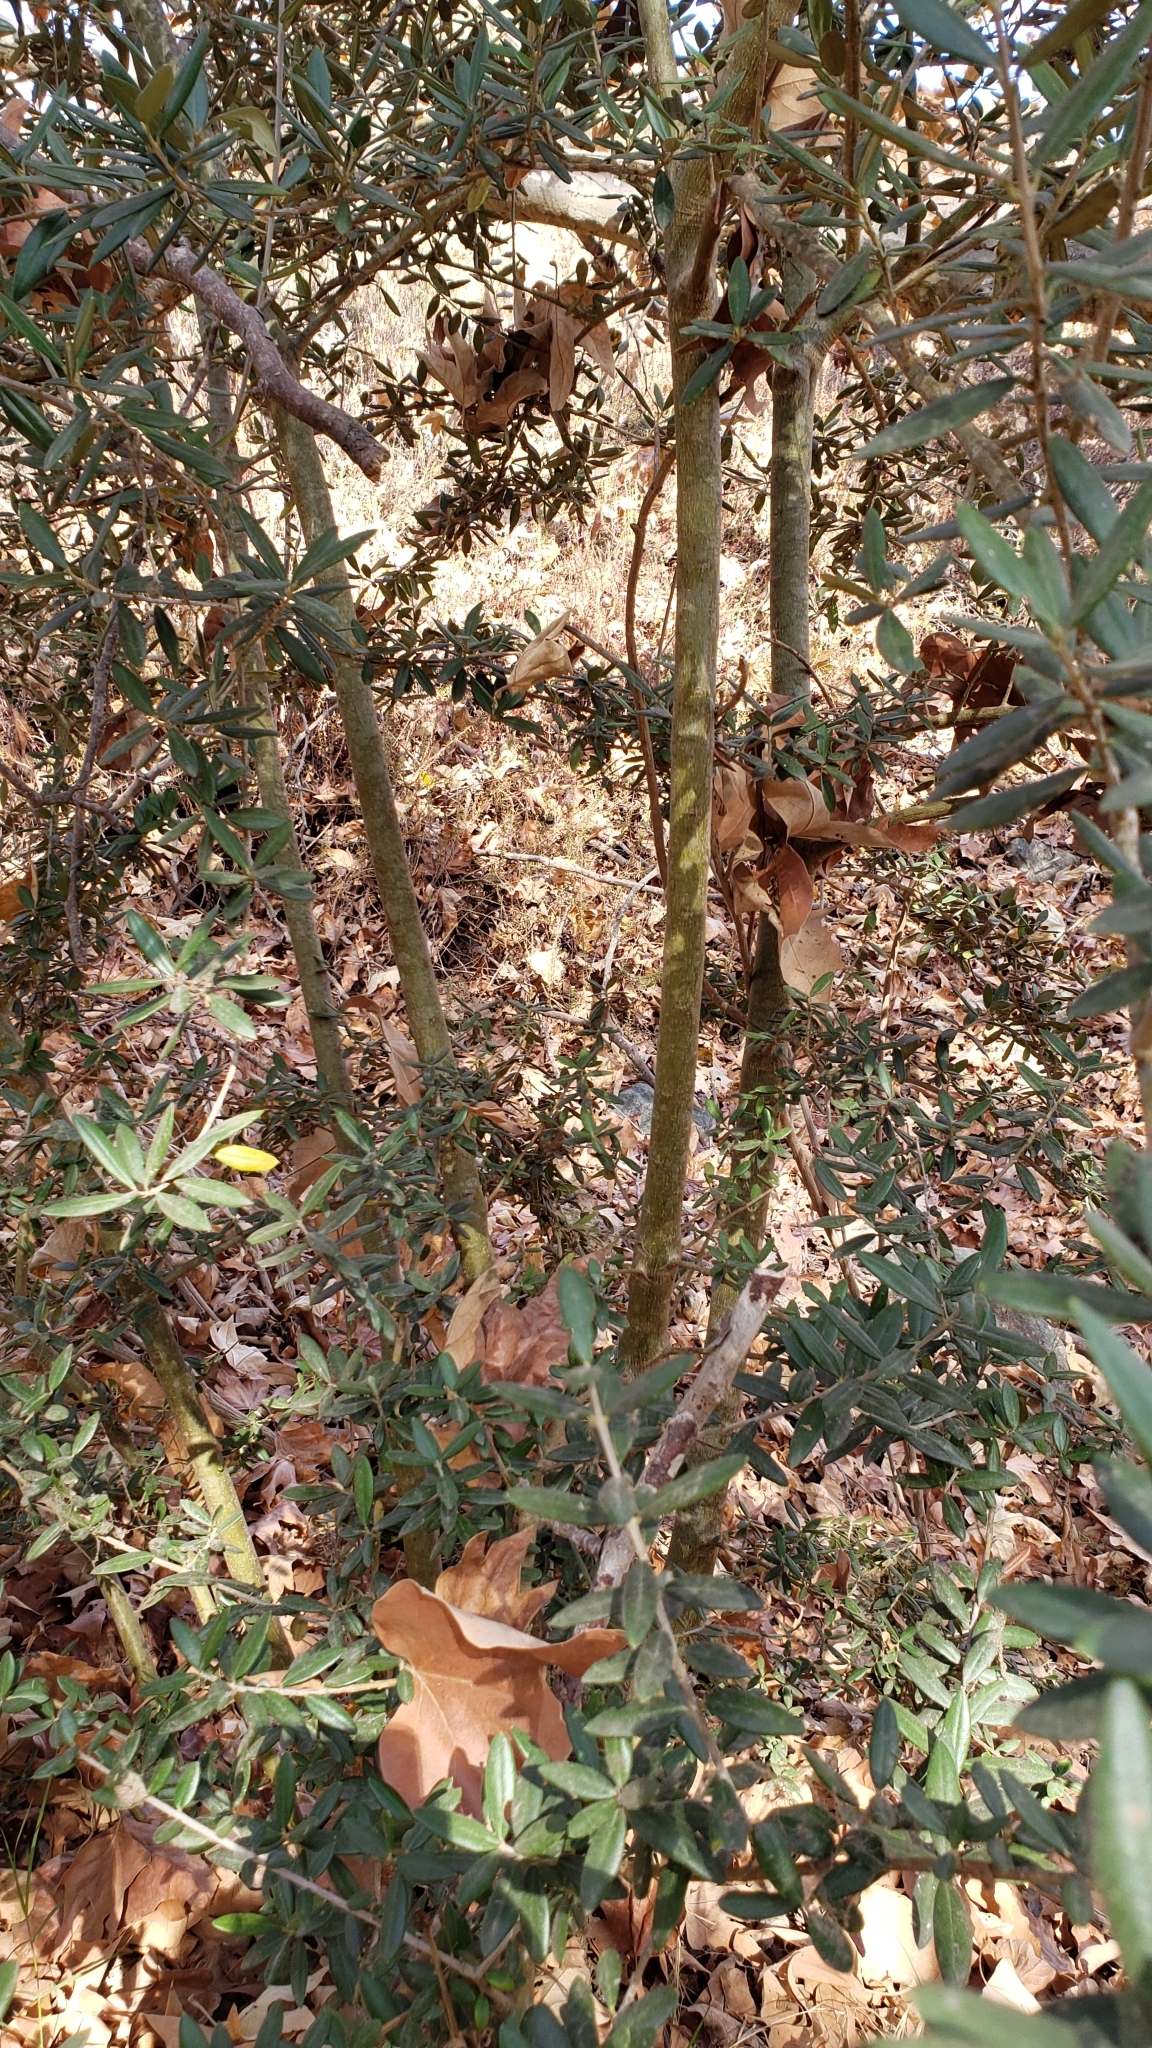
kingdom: Plantae
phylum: Tracheophyta
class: Magnoliopsida
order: Lamiales
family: Oleaceae
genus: Olea
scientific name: Olea europaea
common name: Olive
